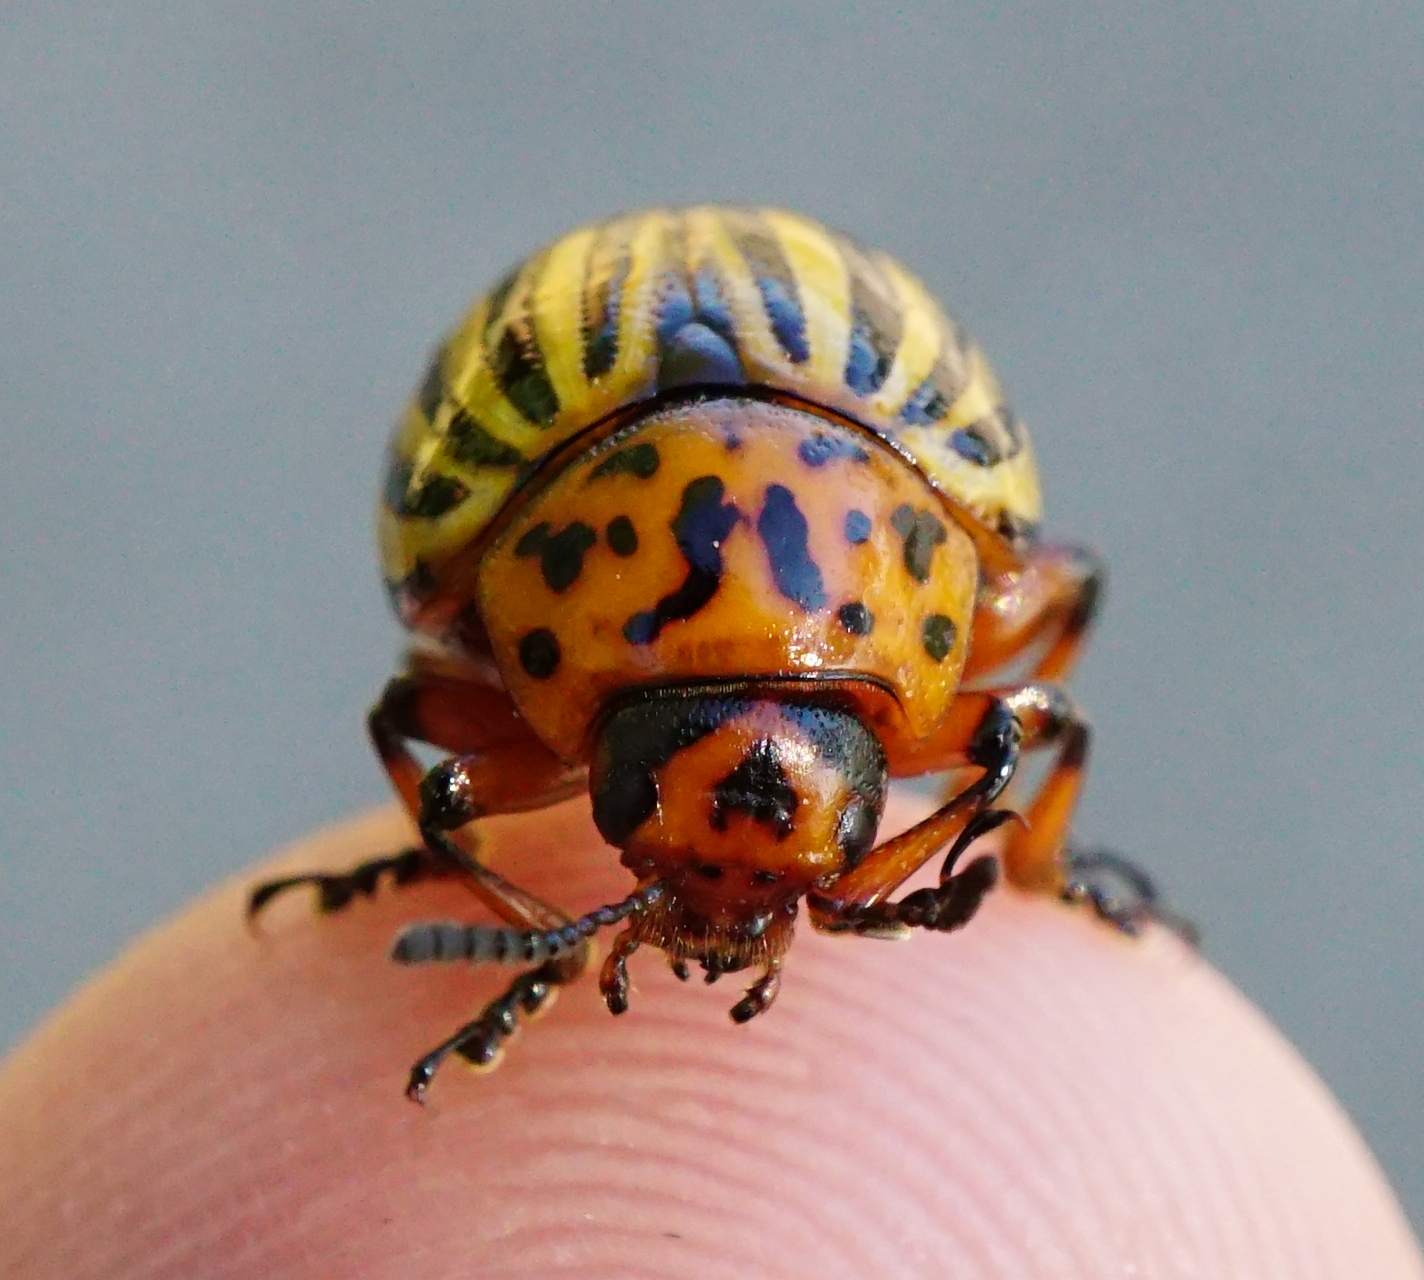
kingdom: Animalia
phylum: Arthropoda
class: Insecta
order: Coleoptera
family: Chrysomelidae
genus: Leptinotarsa
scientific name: Leptinotarsa decemlineata
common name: Colorado potato beetle
